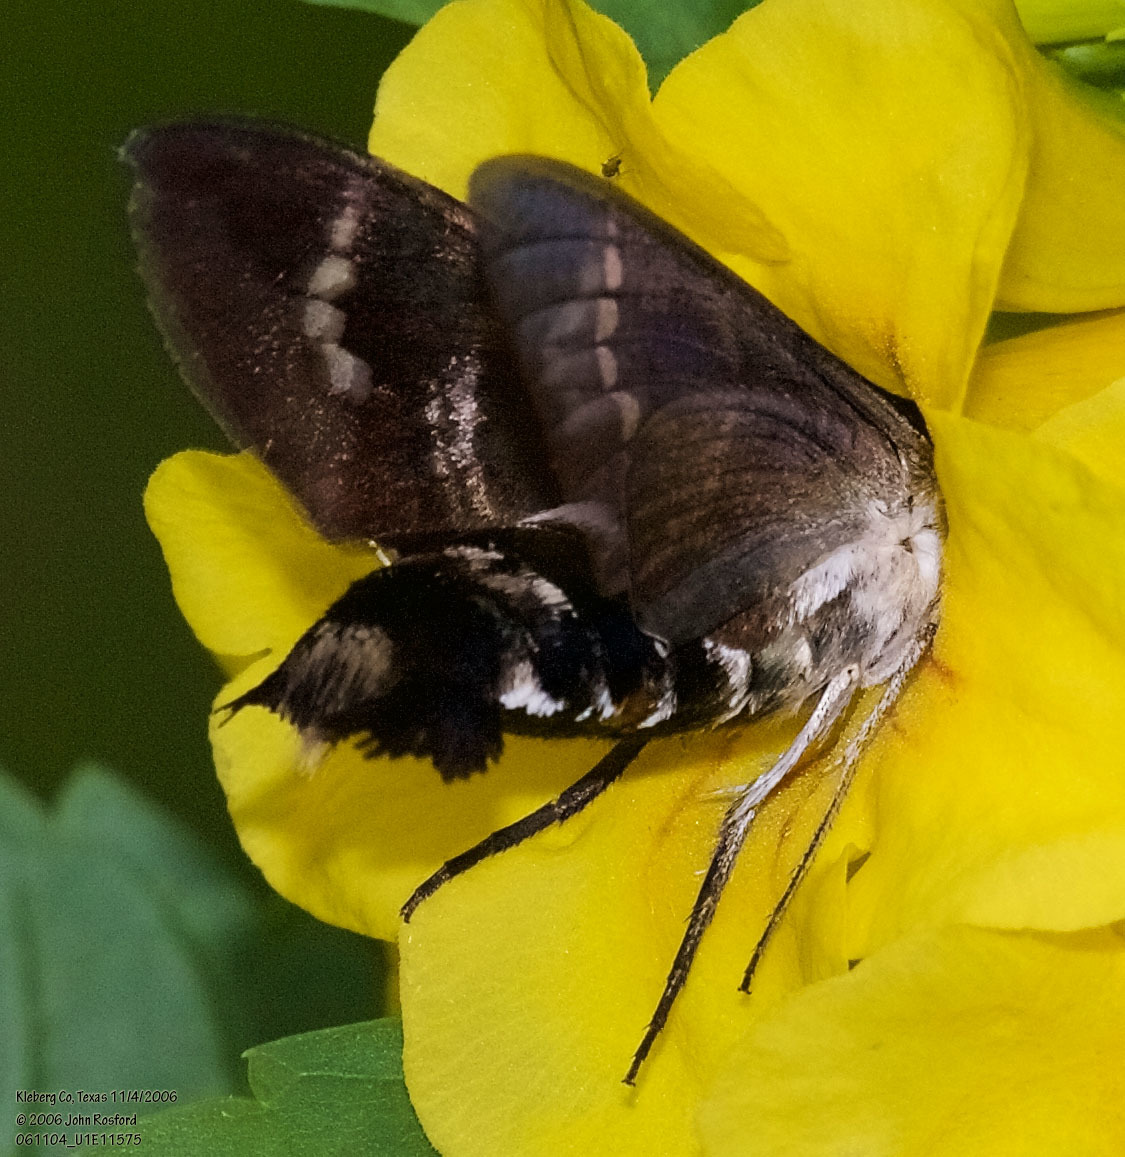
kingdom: Animalia
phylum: Arthropoda
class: Insecta
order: Lepidoptera
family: Sphingidae
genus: Aellopos
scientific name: Aellopos titan
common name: Titan sphinx
